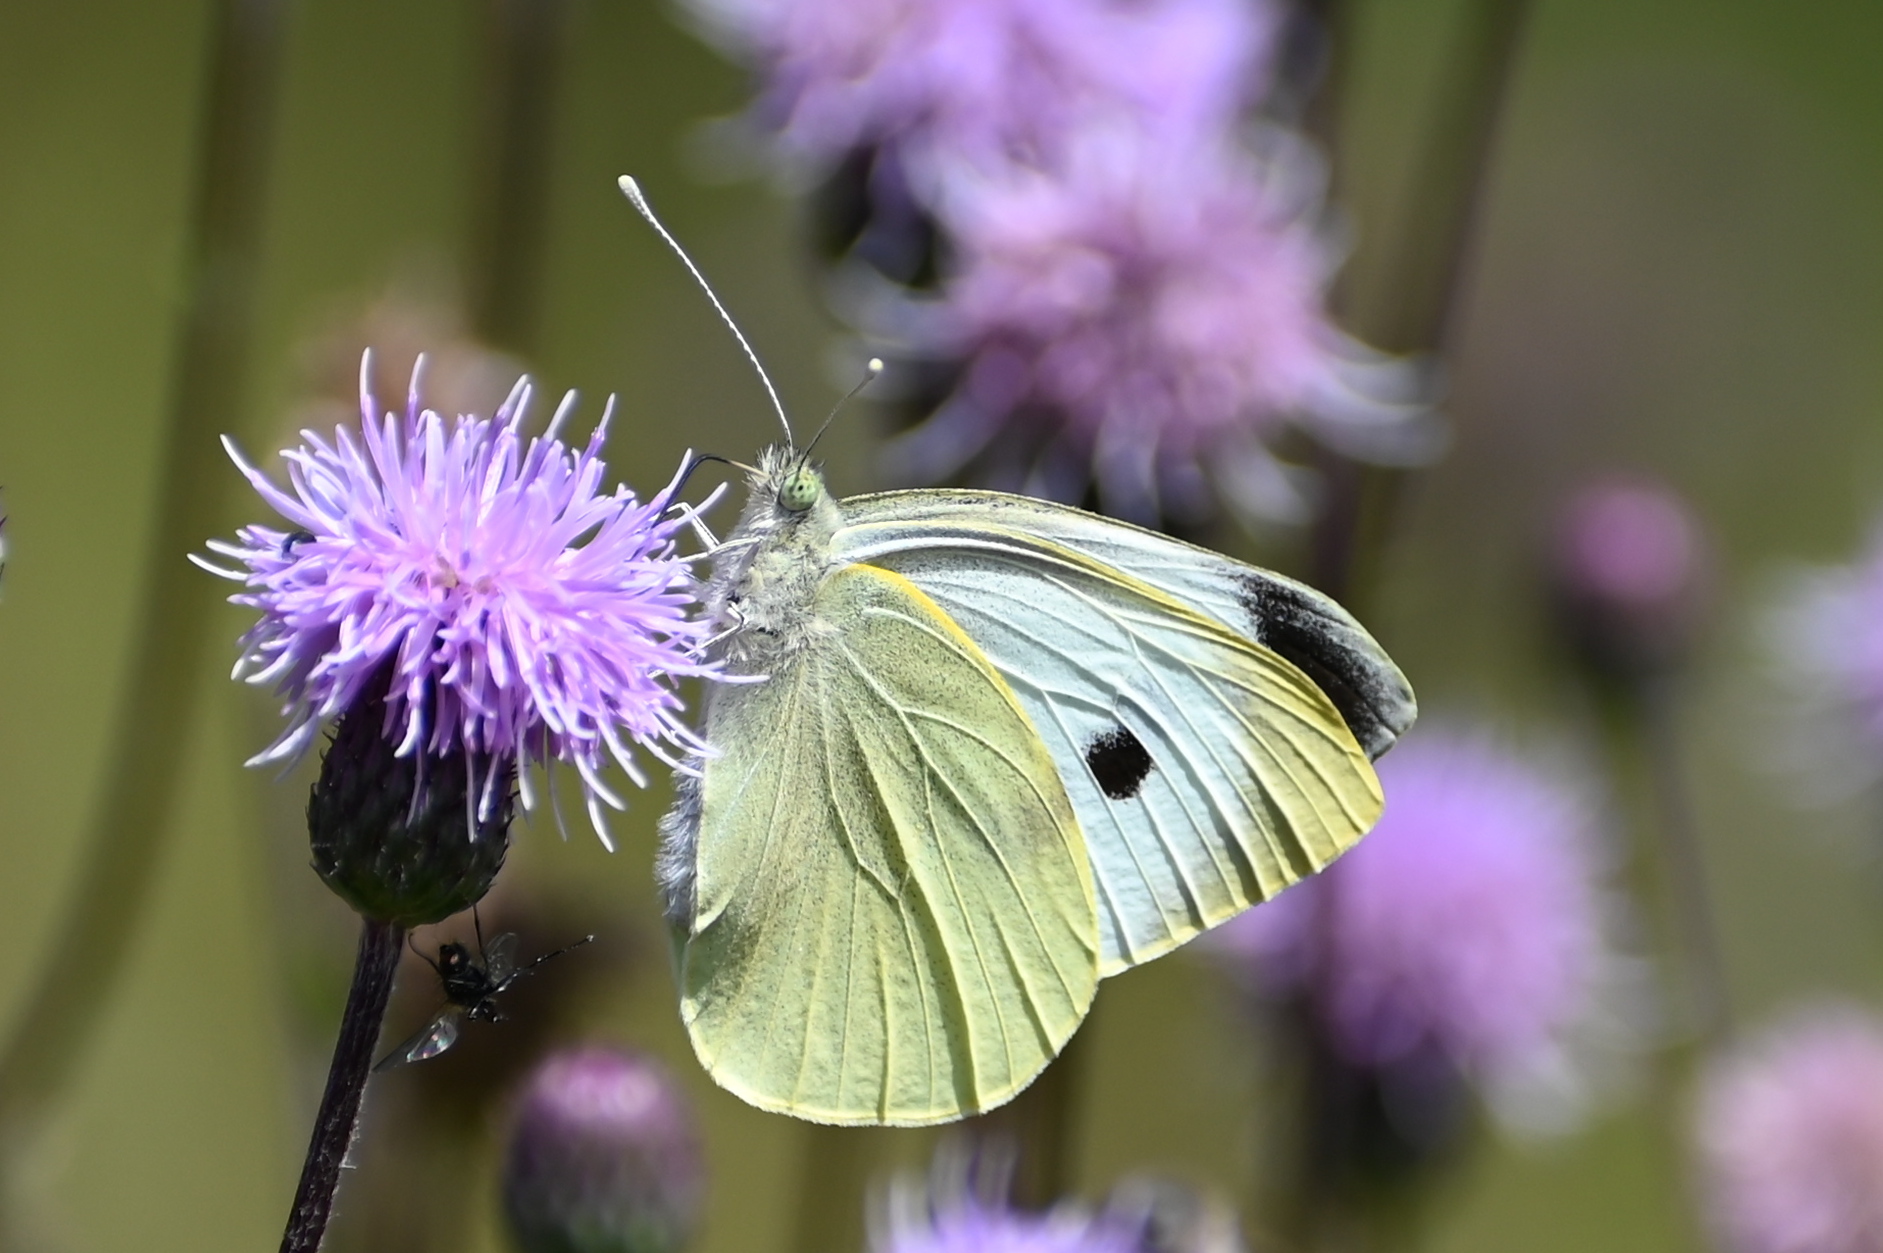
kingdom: Animalia
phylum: Arthropoda
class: Insecta
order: Lepidoptera
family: Pieridae
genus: Pieris
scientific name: Pieris brassicae
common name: Large white
